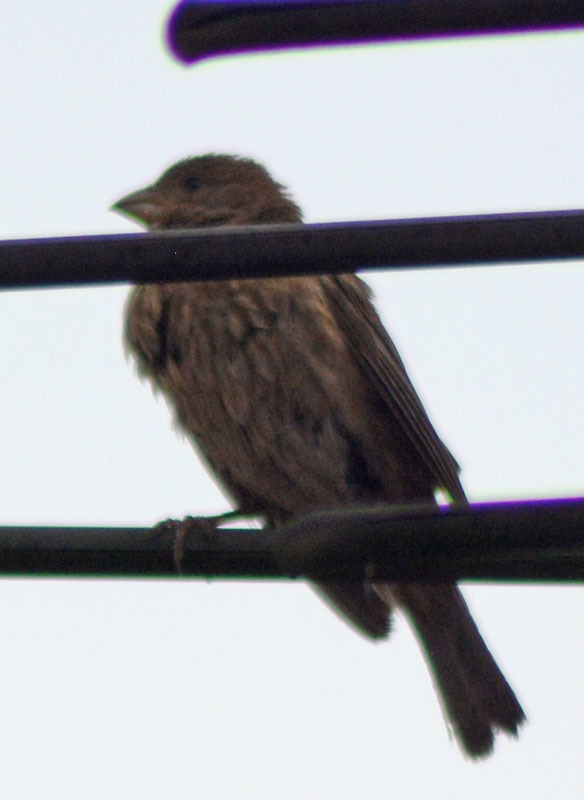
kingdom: Animalia
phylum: Chordata
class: Aves
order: Passeriformes
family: Fringillidae
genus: Haemorhous
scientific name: Haemorhous mexicanus
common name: House finch
